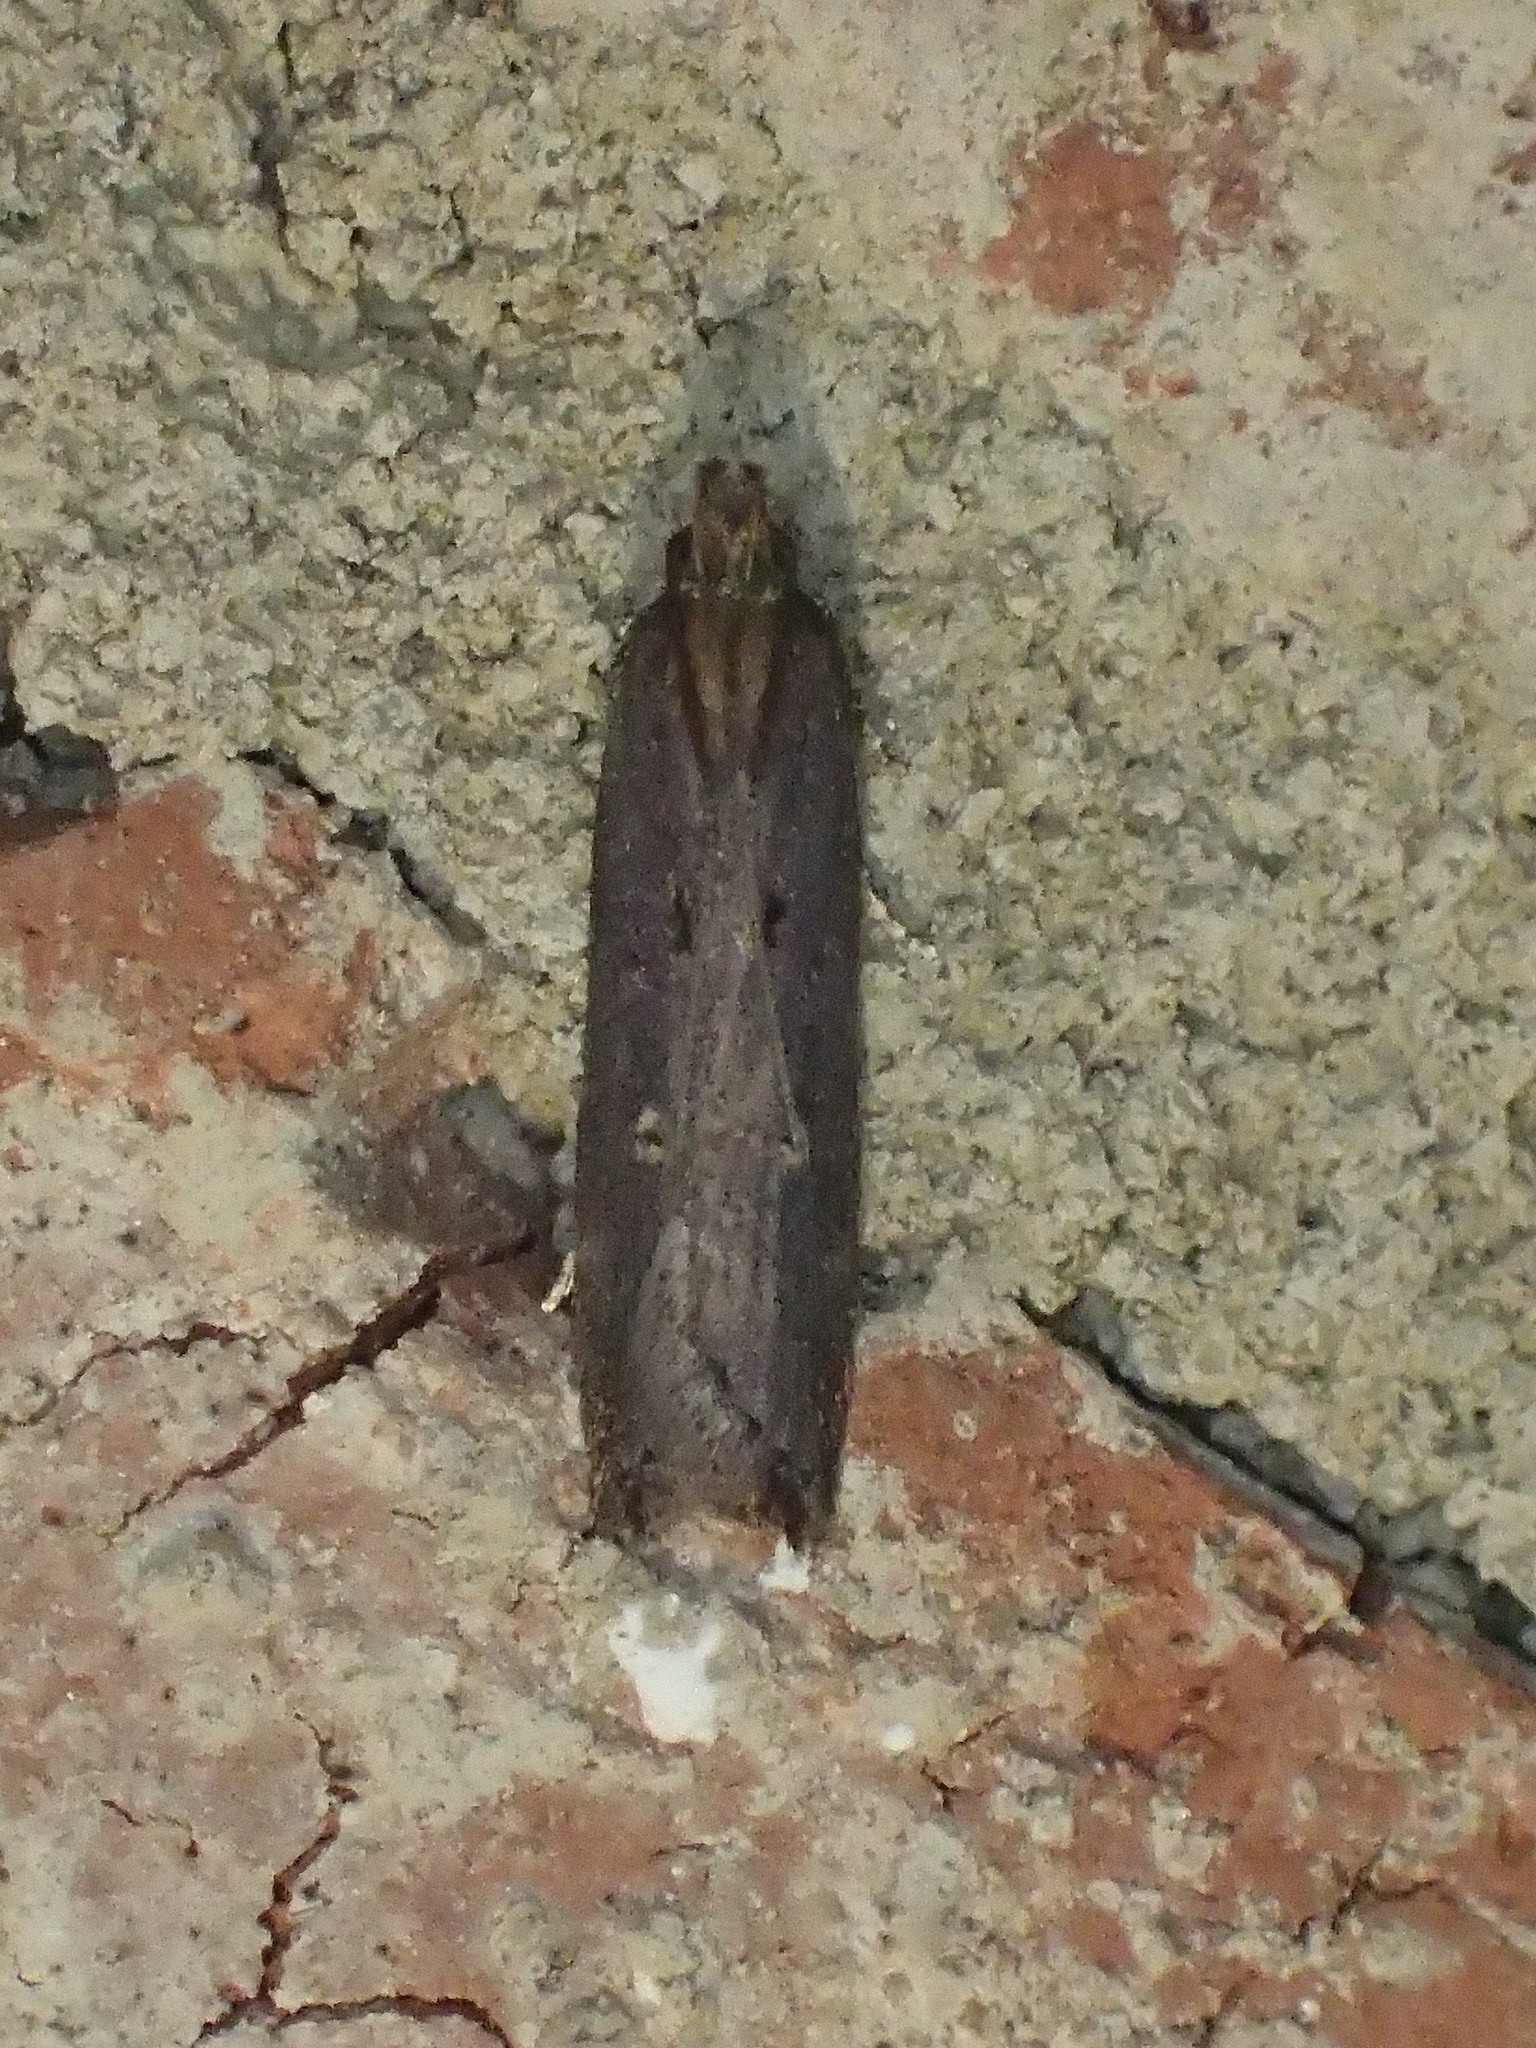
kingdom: Animalia
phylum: Arthropoda
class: Insecta
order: Lepidoptera
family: Gelechiidae
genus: Chionodes
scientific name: Chionodes discoocellella
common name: Eye-ringed chionodes moth
